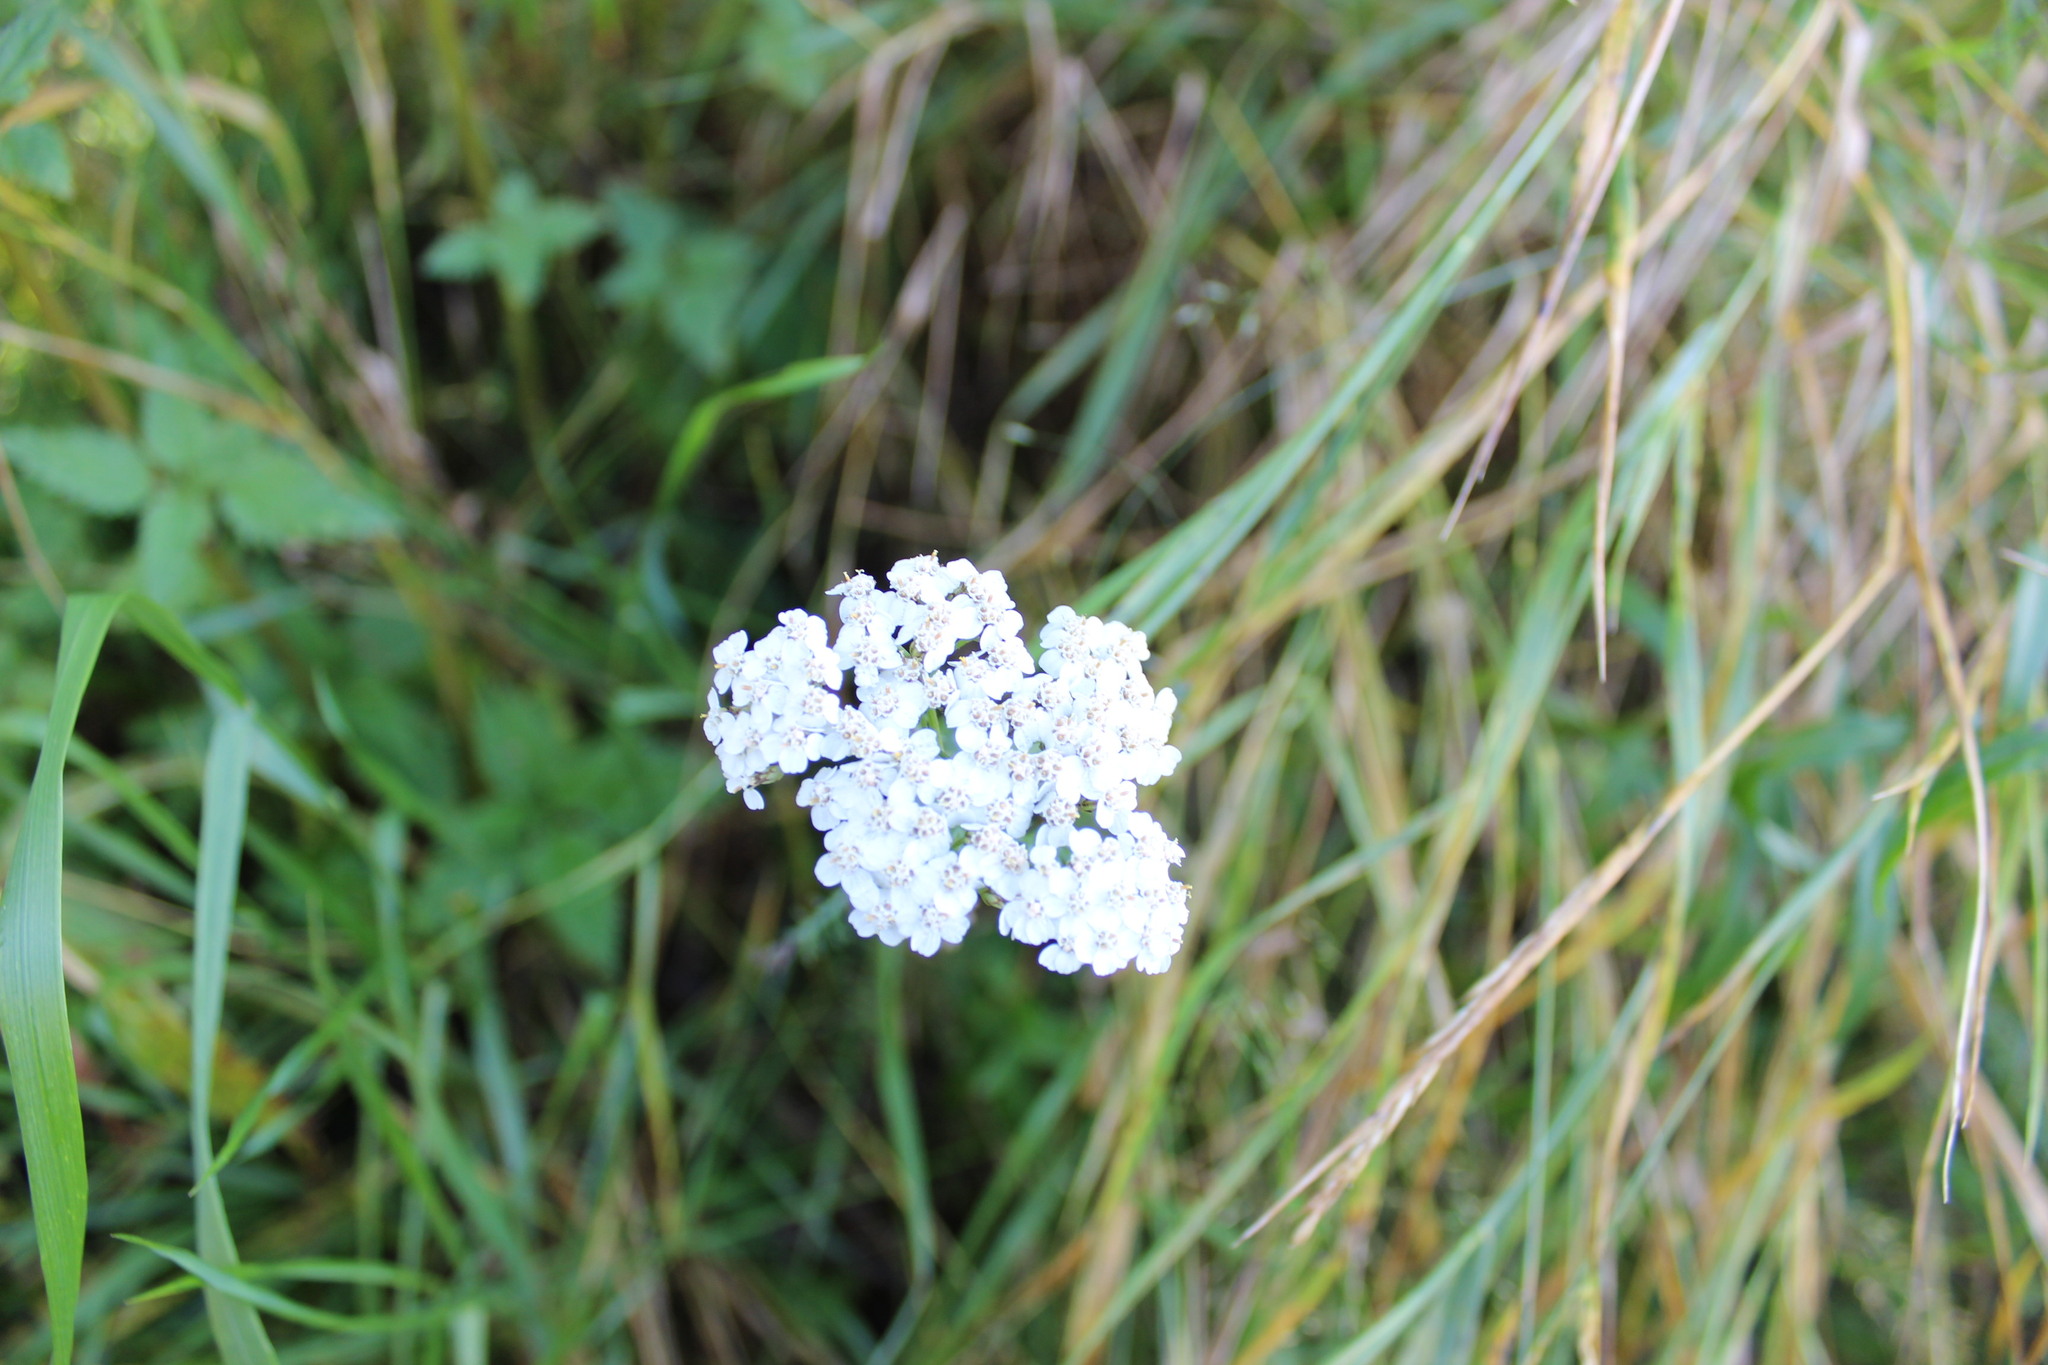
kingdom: Plantae
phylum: Tracheophyta
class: Magnoliopsida
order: Asterales
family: Asteraceae
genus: Achillea
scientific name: Achillea millefolium
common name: Yarrow
